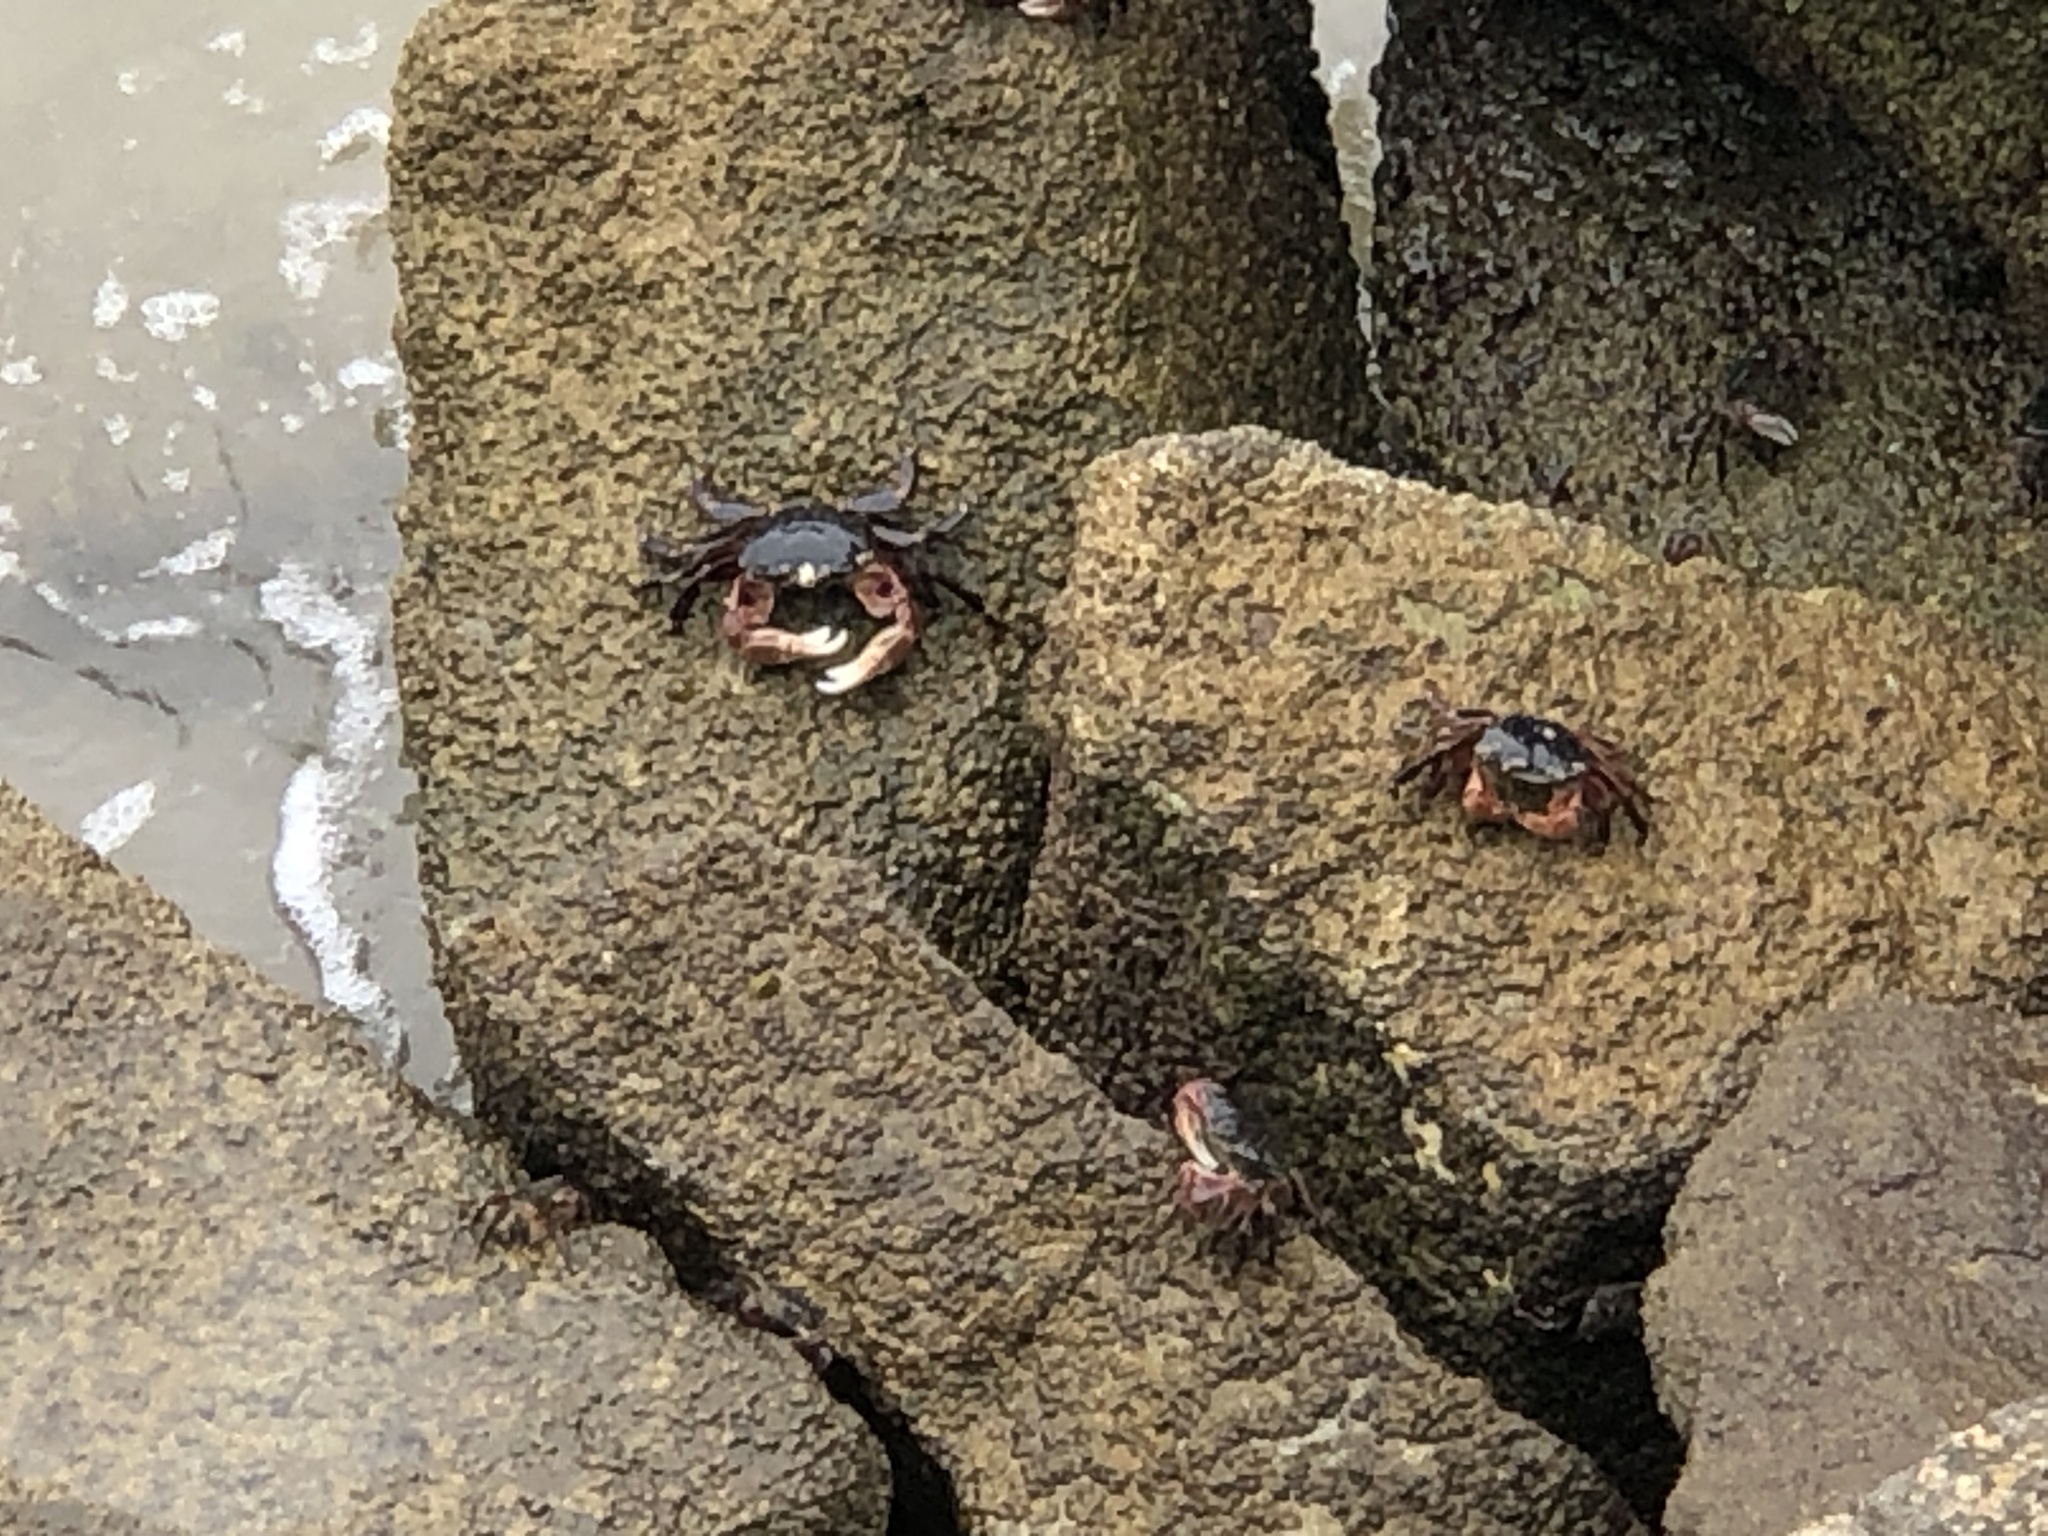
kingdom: Animalia
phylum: Arthropoda
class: Malacostraca
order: Decapoda
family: Grapsidae
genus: Pachygrapsus
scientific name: Pachygrapsus crassipes
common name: Striped shore crab
